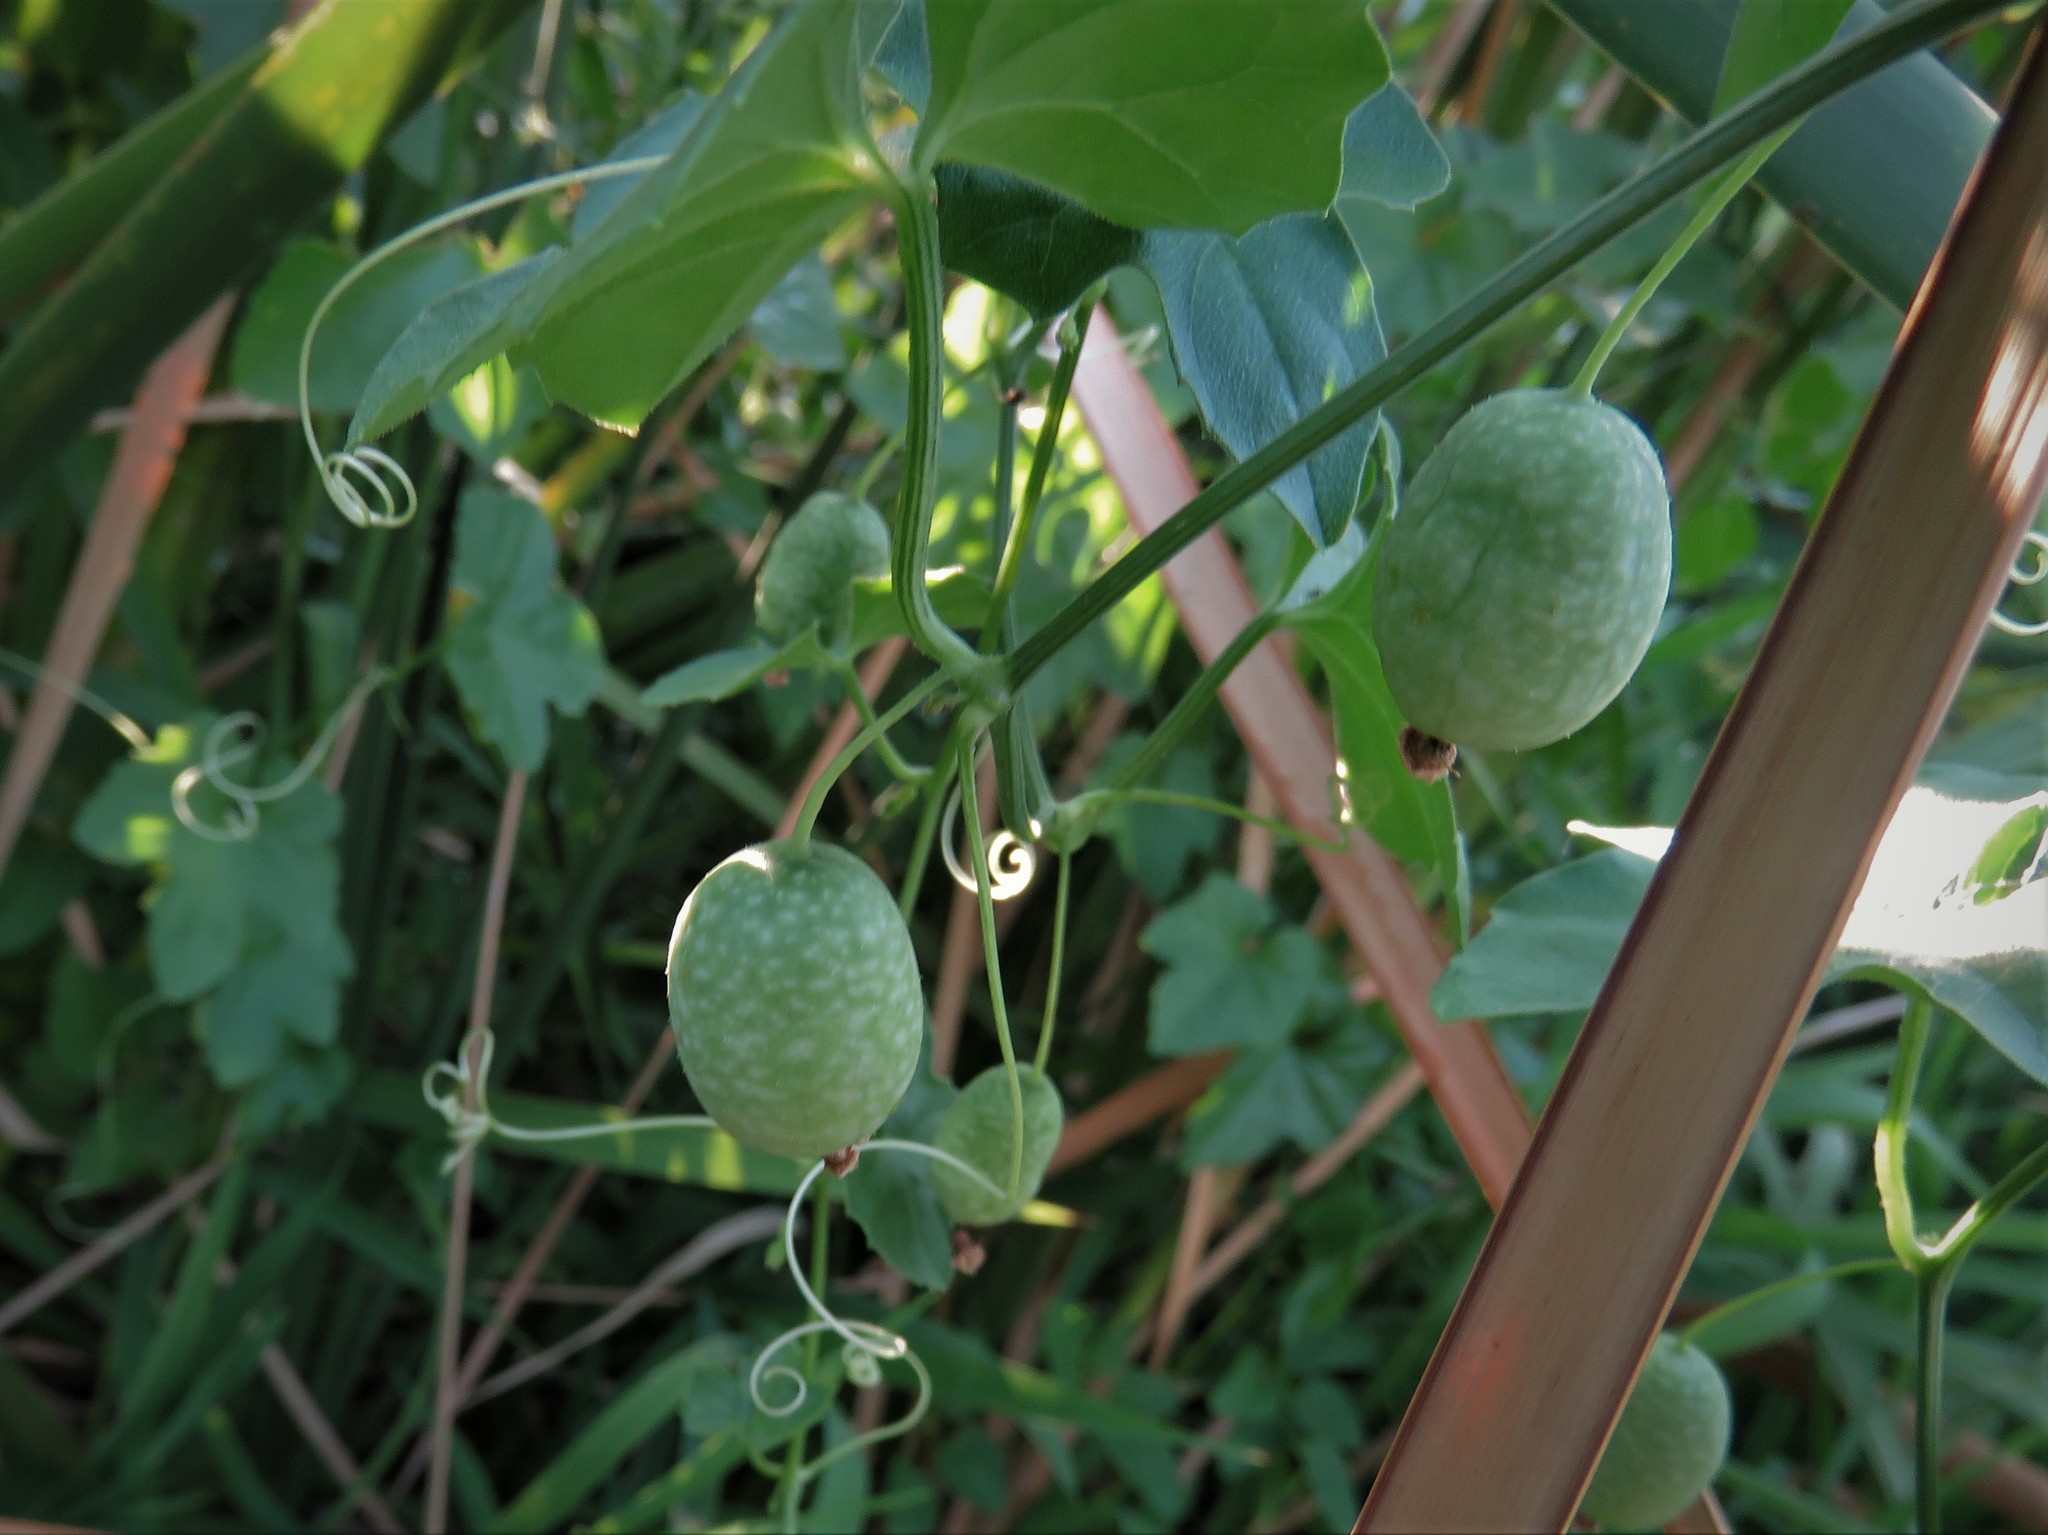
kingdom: Plantae
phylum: Tracheophyta
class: Magnoliopsida
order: Cucurbitales
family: Cucurbitaceae
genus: Melothria
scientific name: Melothria pendula
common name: Creeping-cucumber
